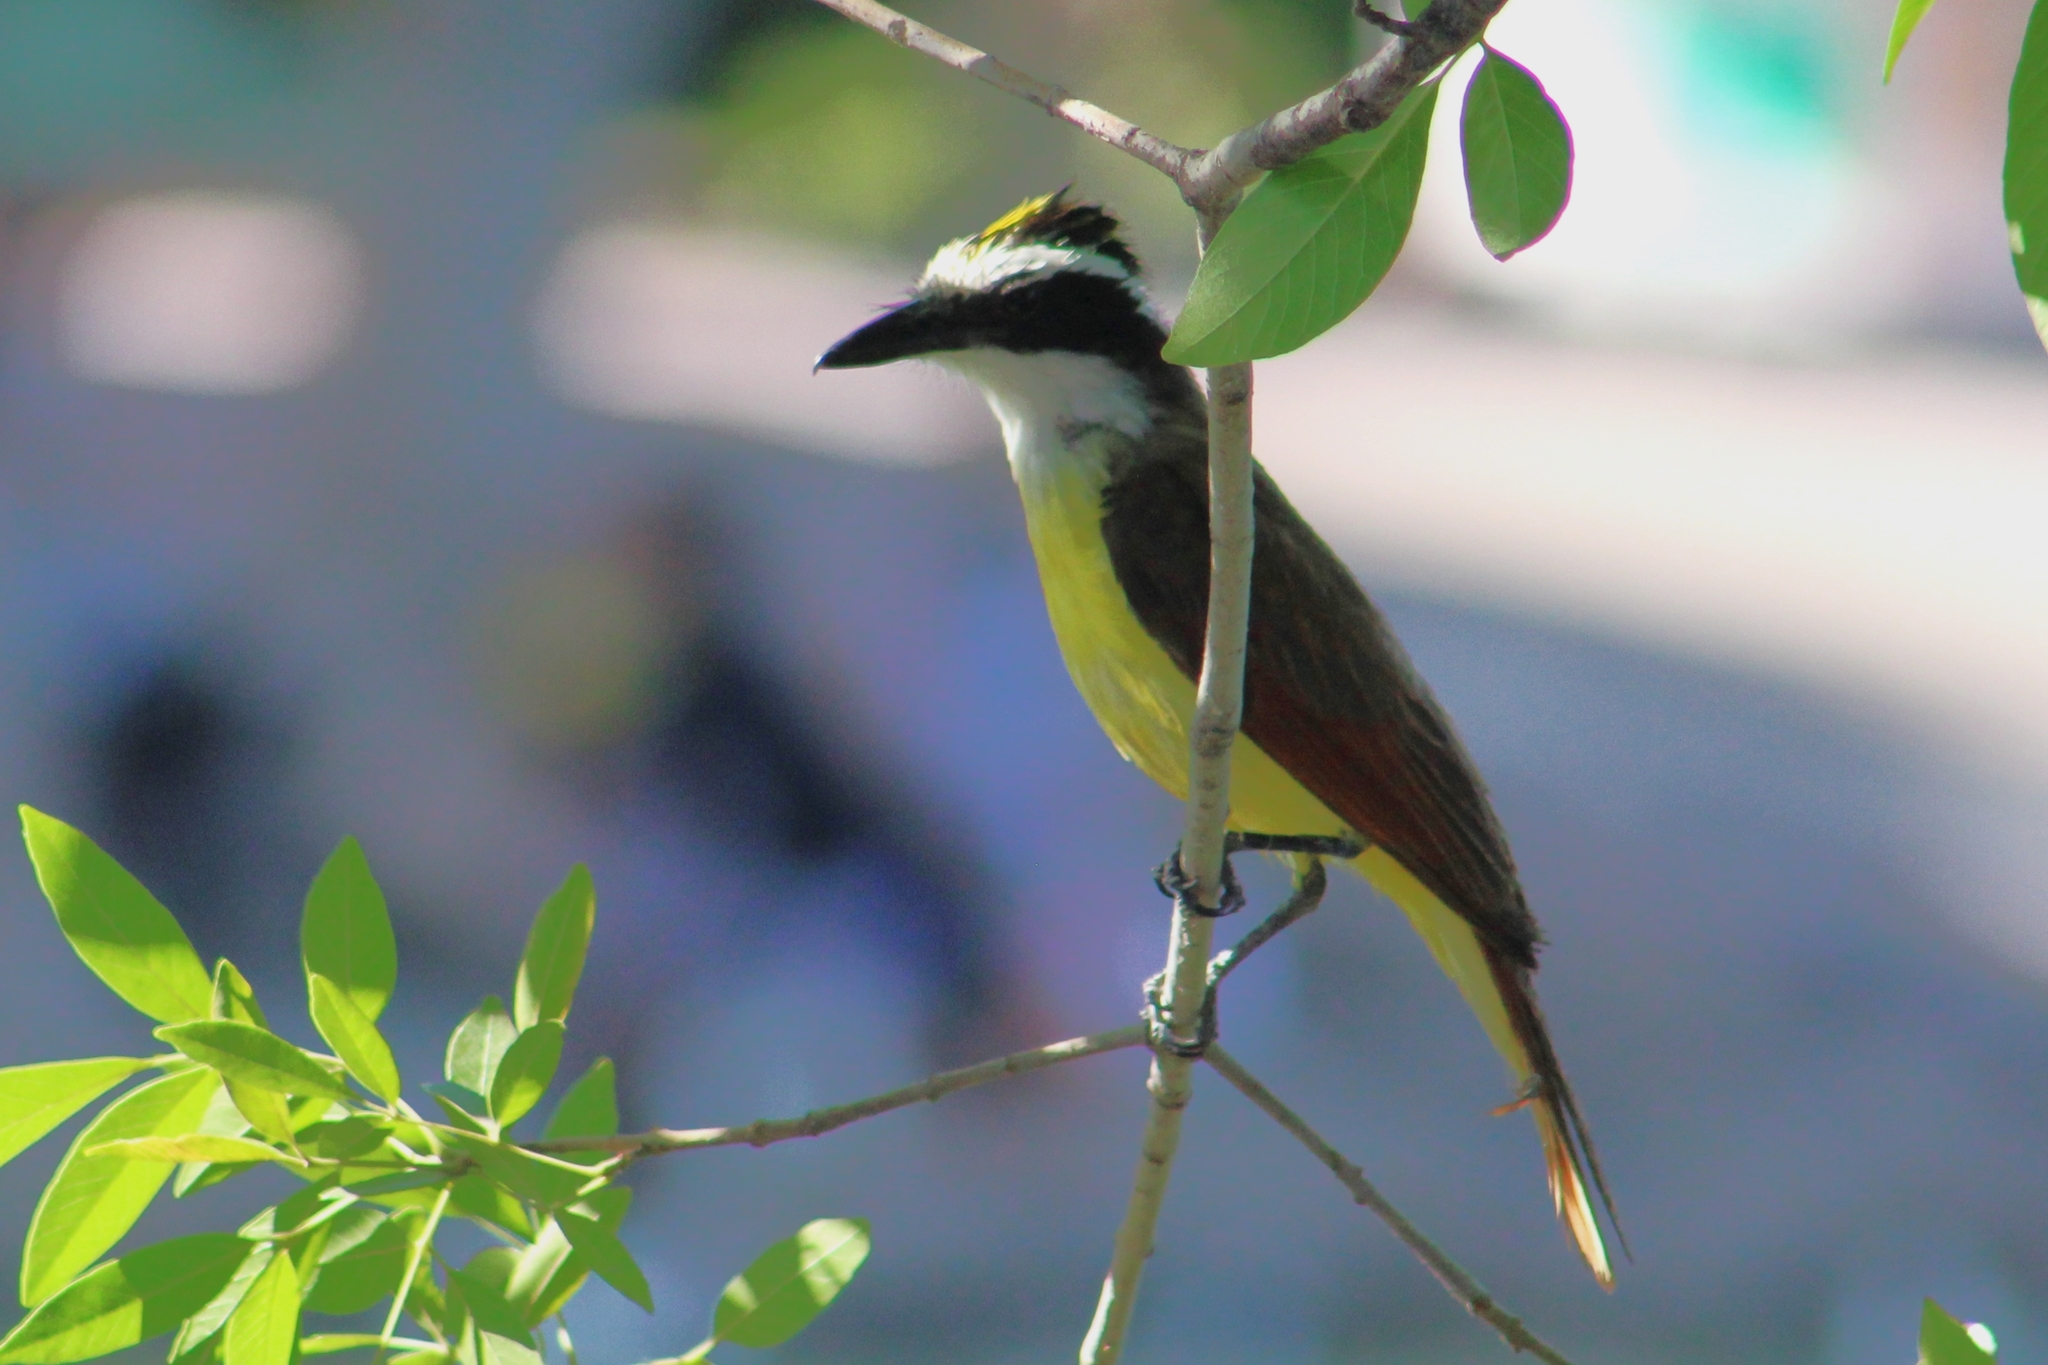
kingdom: Animalia
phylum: Chordata
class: Aves
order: Passeriformes
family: Tyrannidae
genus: Pitangus
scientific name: Pitangus sulphuratus
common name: Great kiskadee
